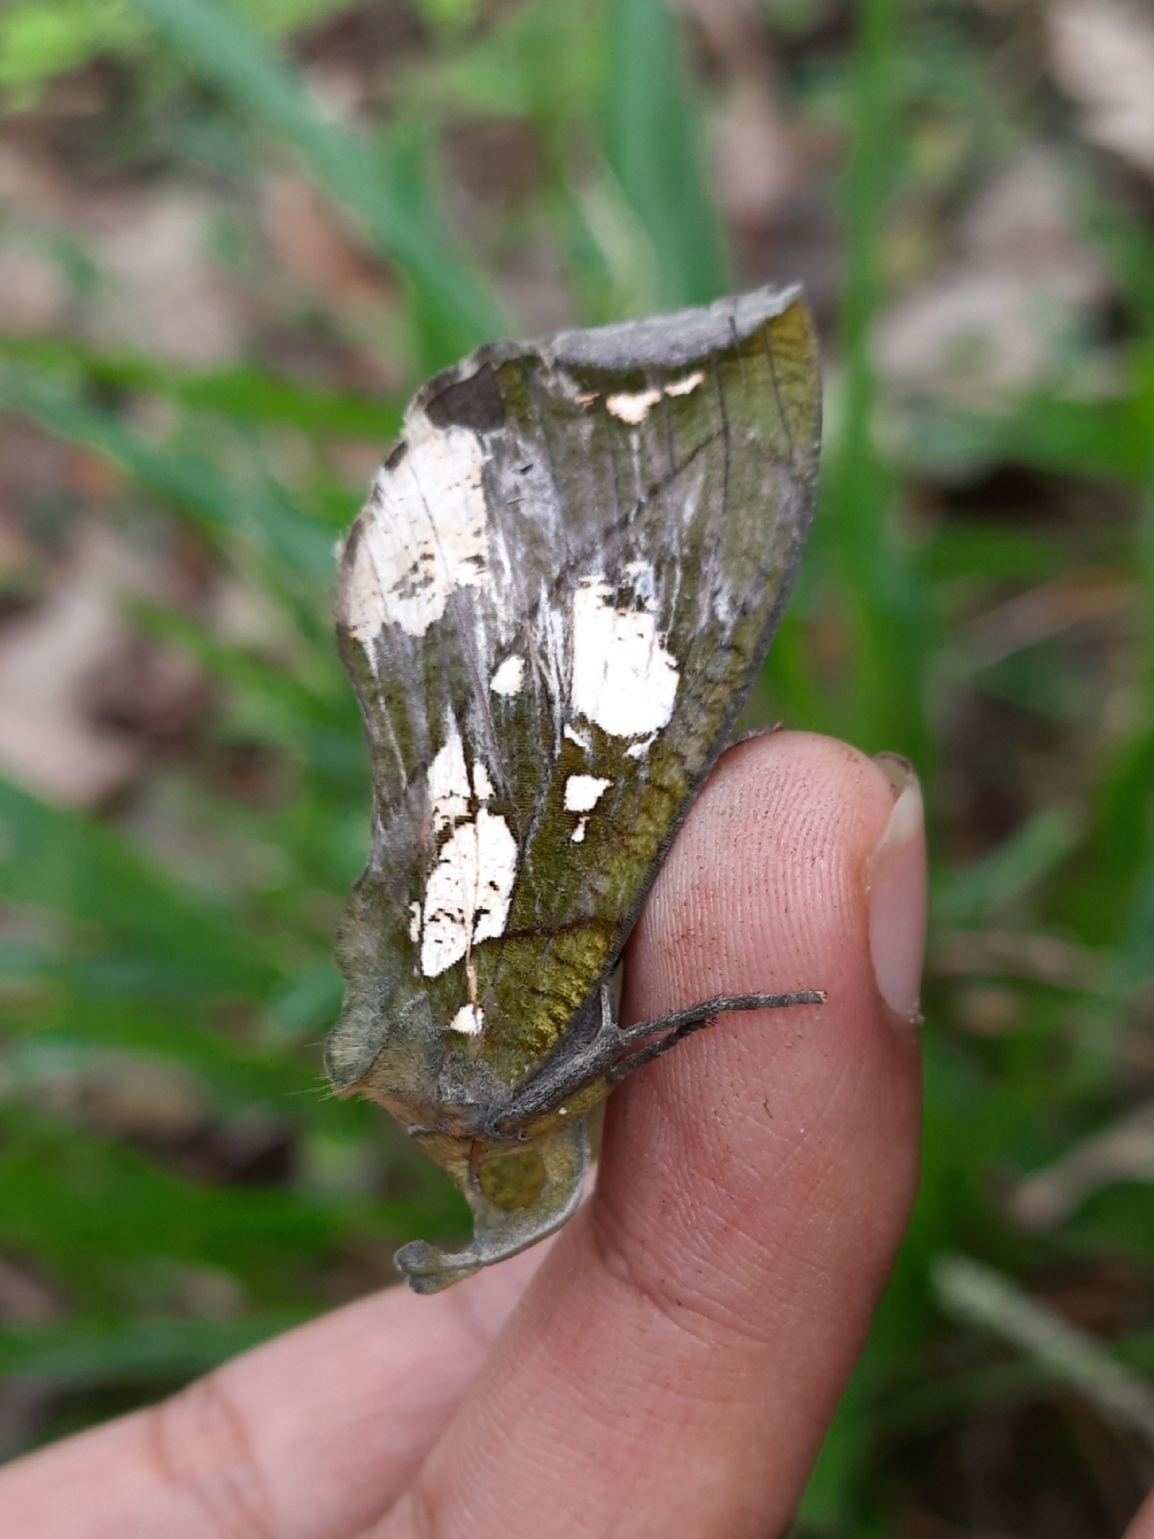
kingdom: Animalia
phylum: Arthropoda
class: Insecta
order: Lepidoptera
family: Erebidae
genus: Eudocima
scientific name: Eudocima hypermnestra
